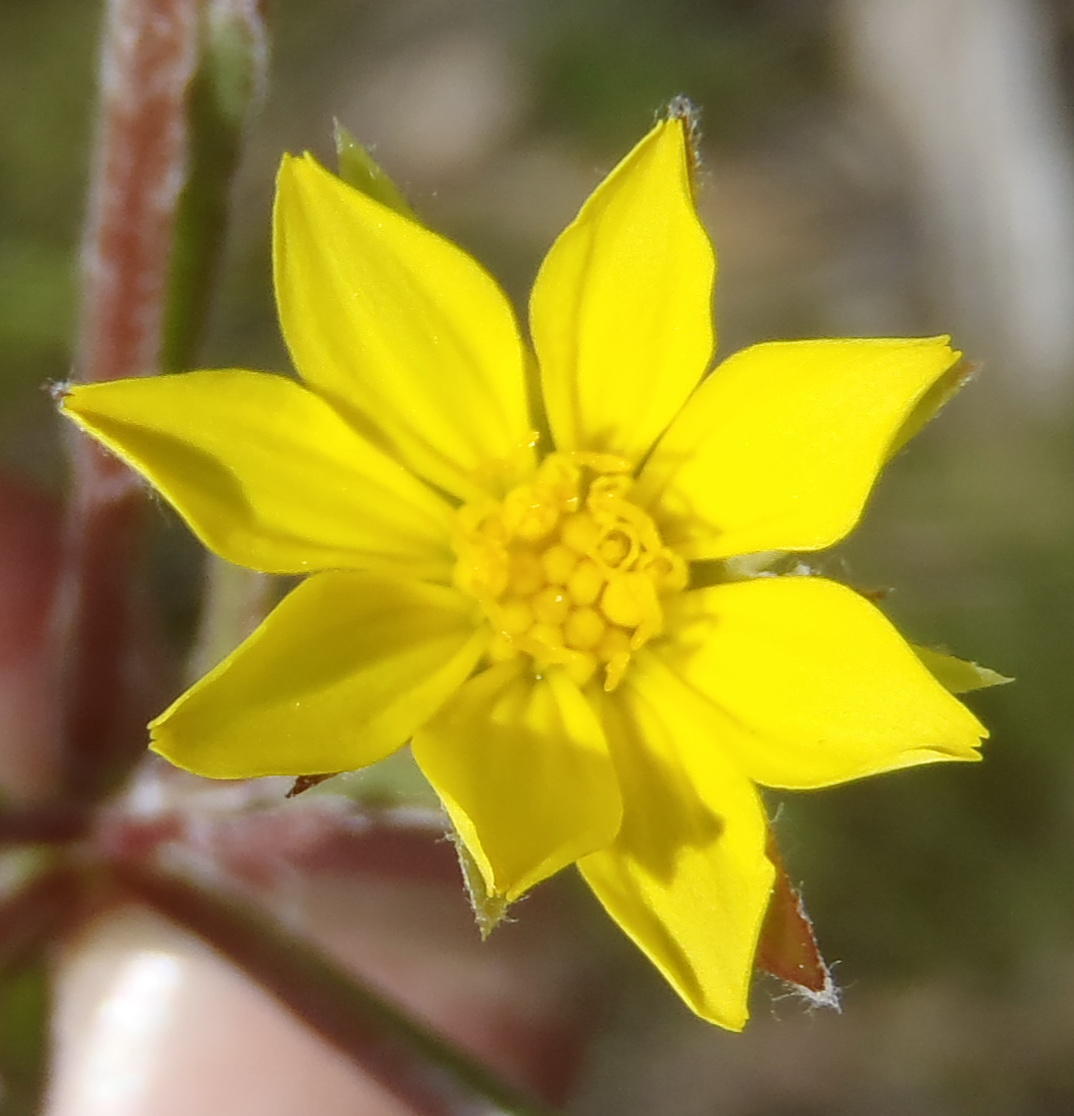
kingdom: Plantae
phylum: Tracheophyta
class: Magnoliopsida
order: Asterales
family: Asteraceae
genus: Osteospermum
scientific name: Osteospermum asperulum
